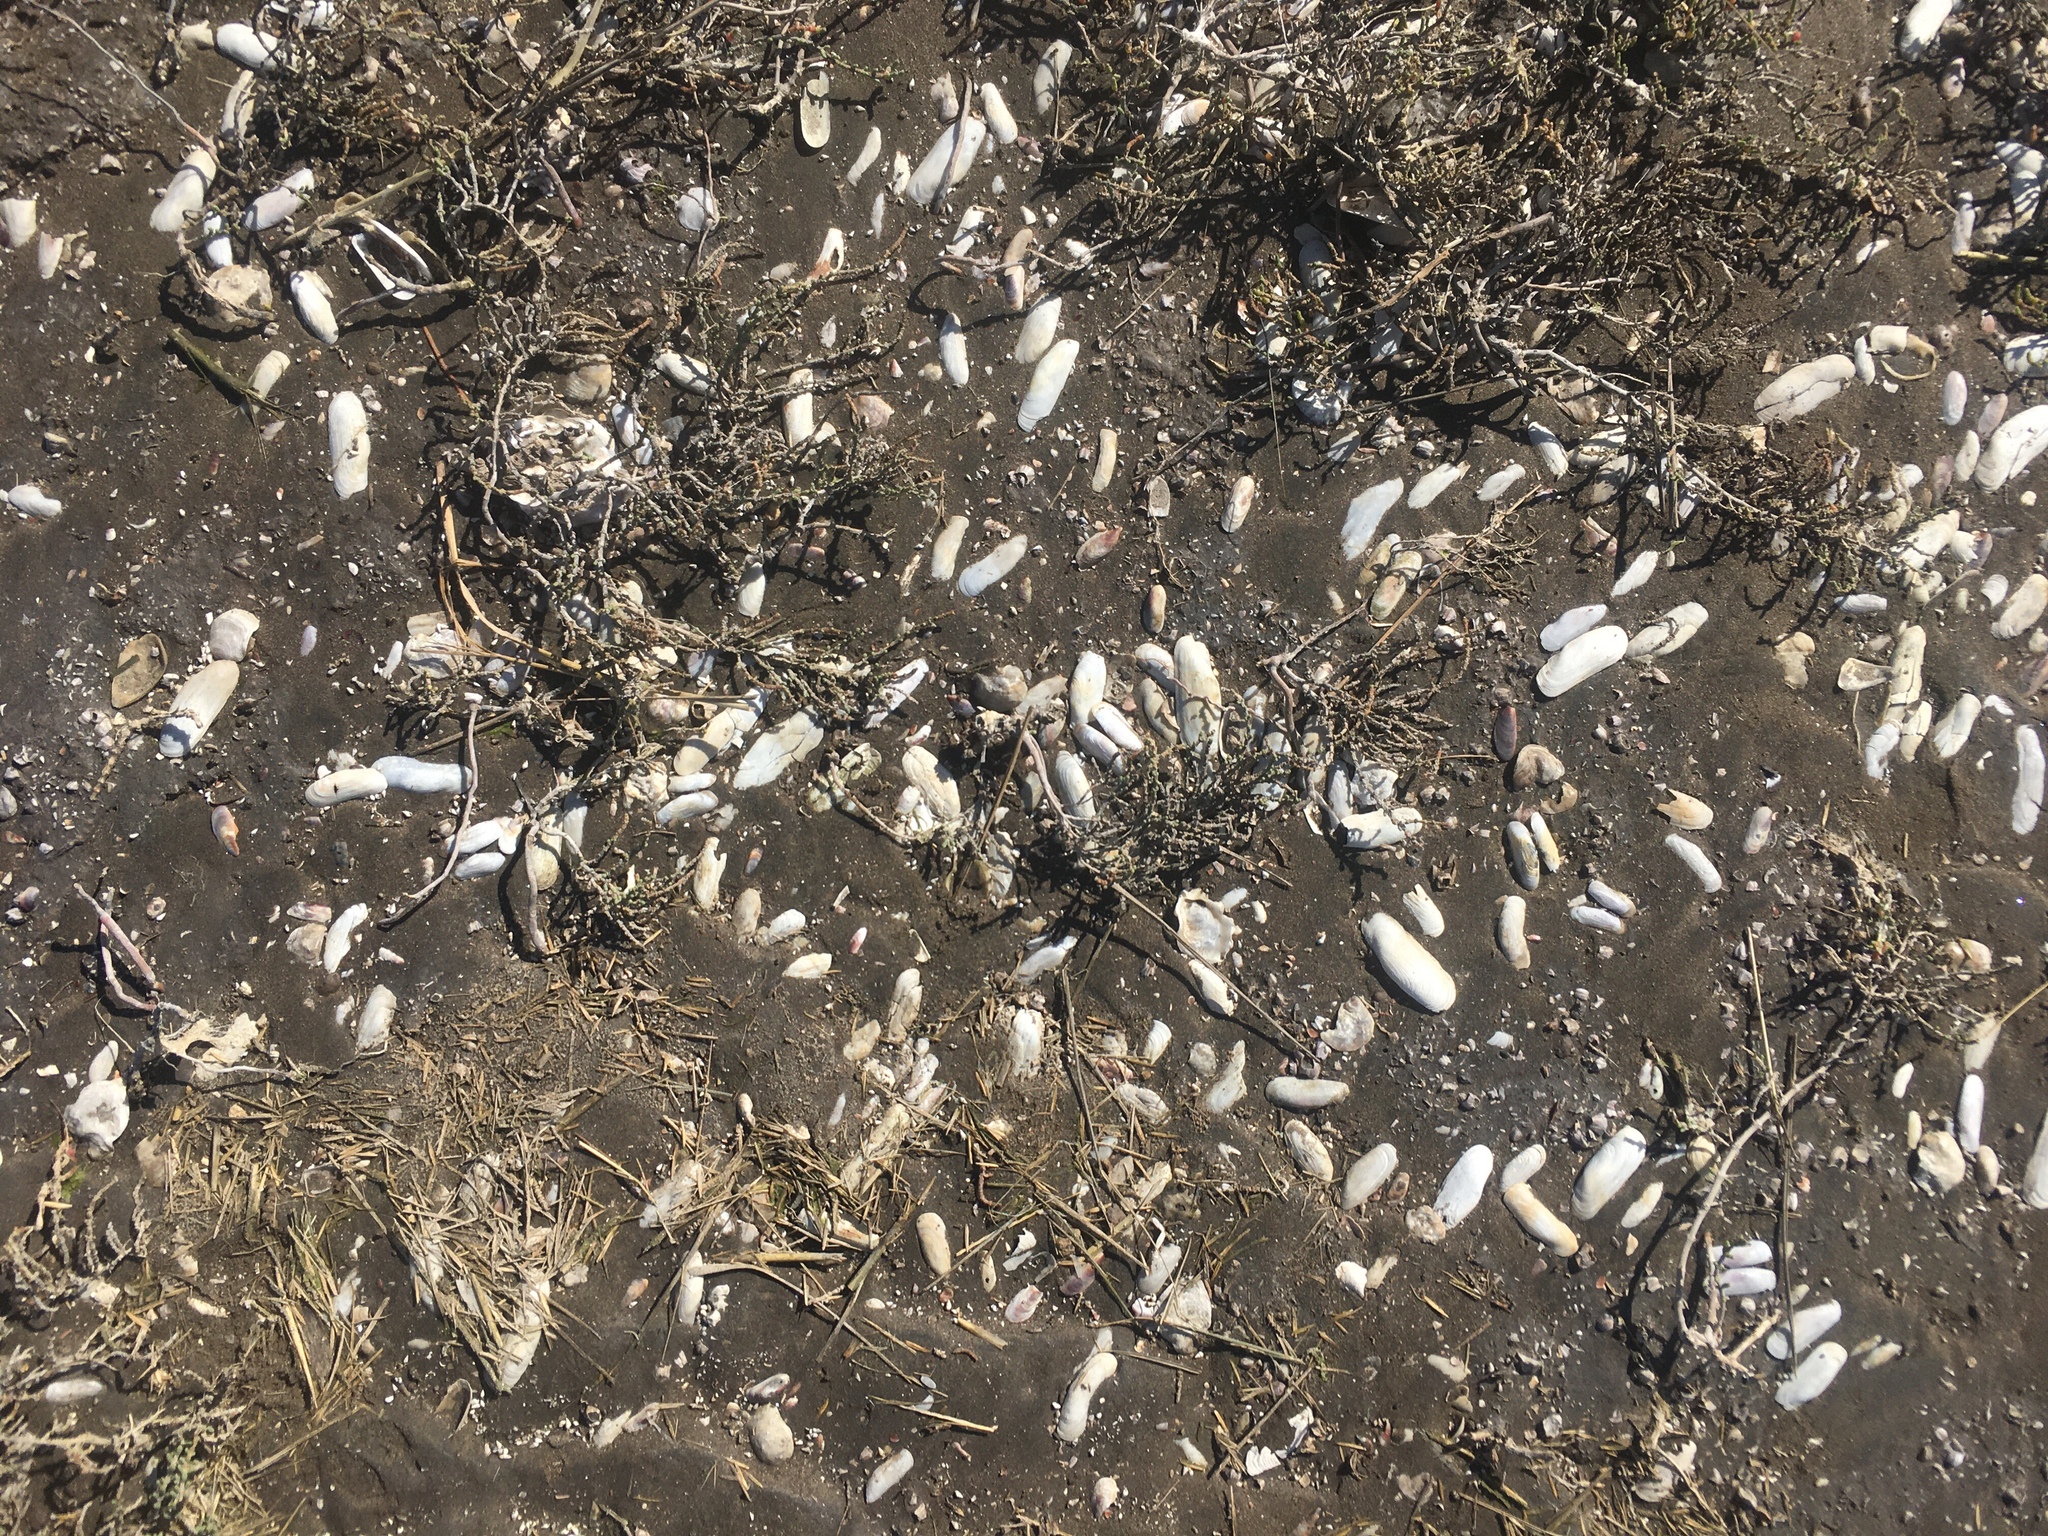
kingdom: Animalia
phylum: Mollusca
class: Bivalvia
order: Cardiida
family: Solecurtidae
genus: Tagelus
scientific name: Tagelus plebeius
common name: Stout tagelus
